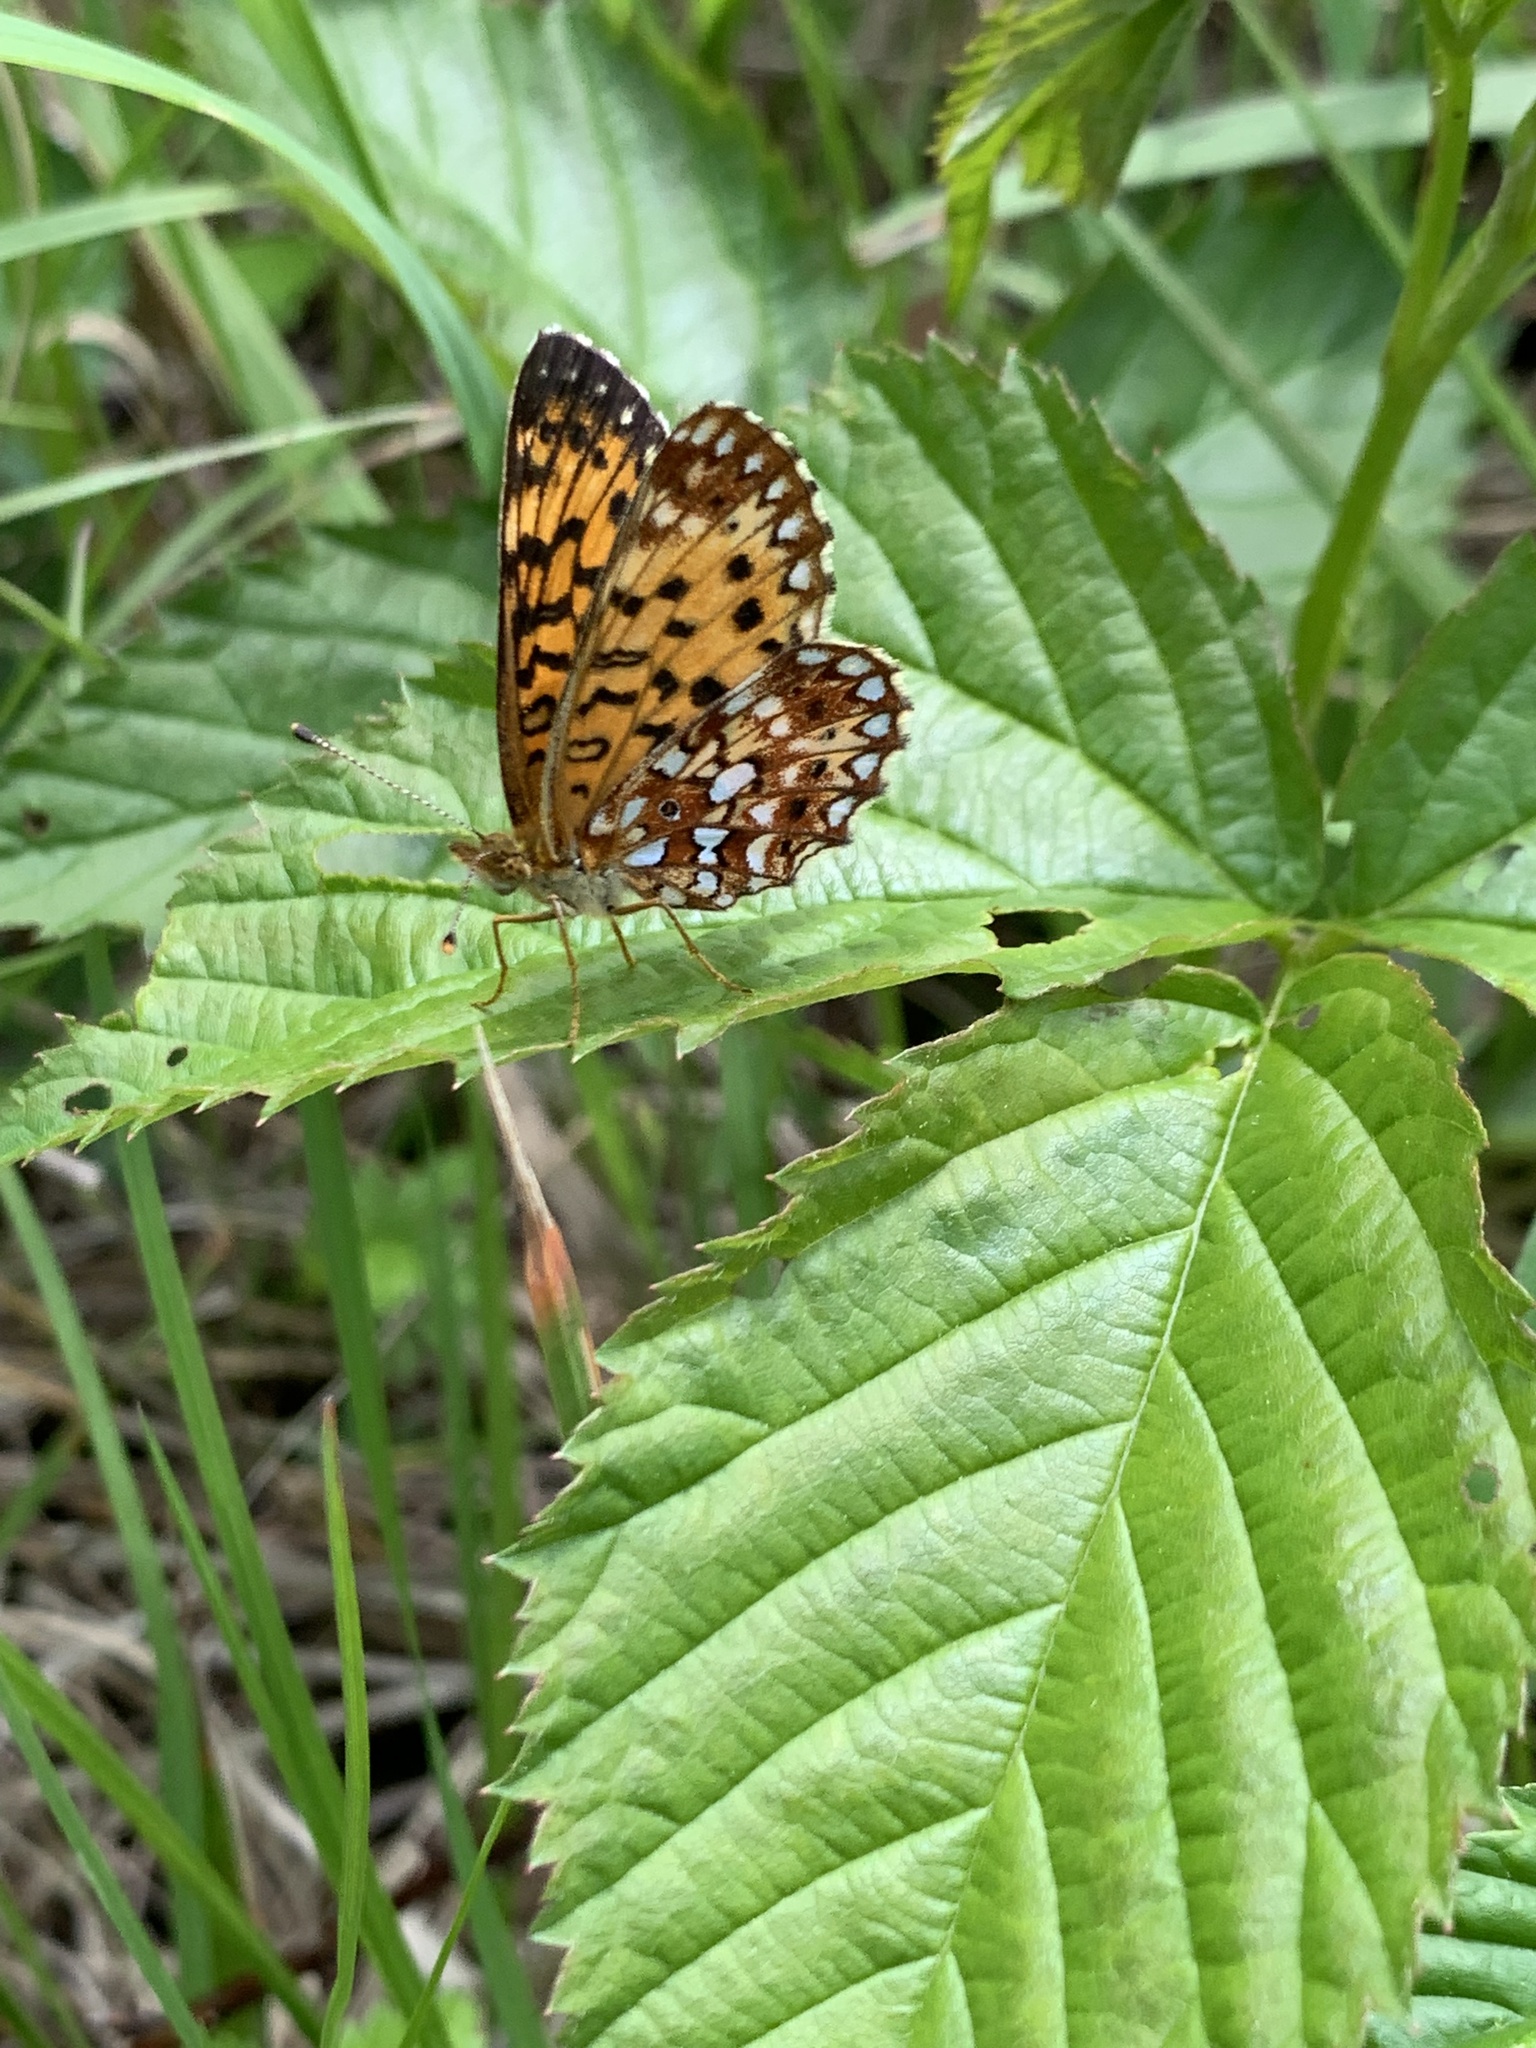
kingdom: Animalia
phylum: Arthropoda
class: Insecta
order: Lepidoptera
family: Nymphalidae
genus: Boloria
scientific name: Boloria
